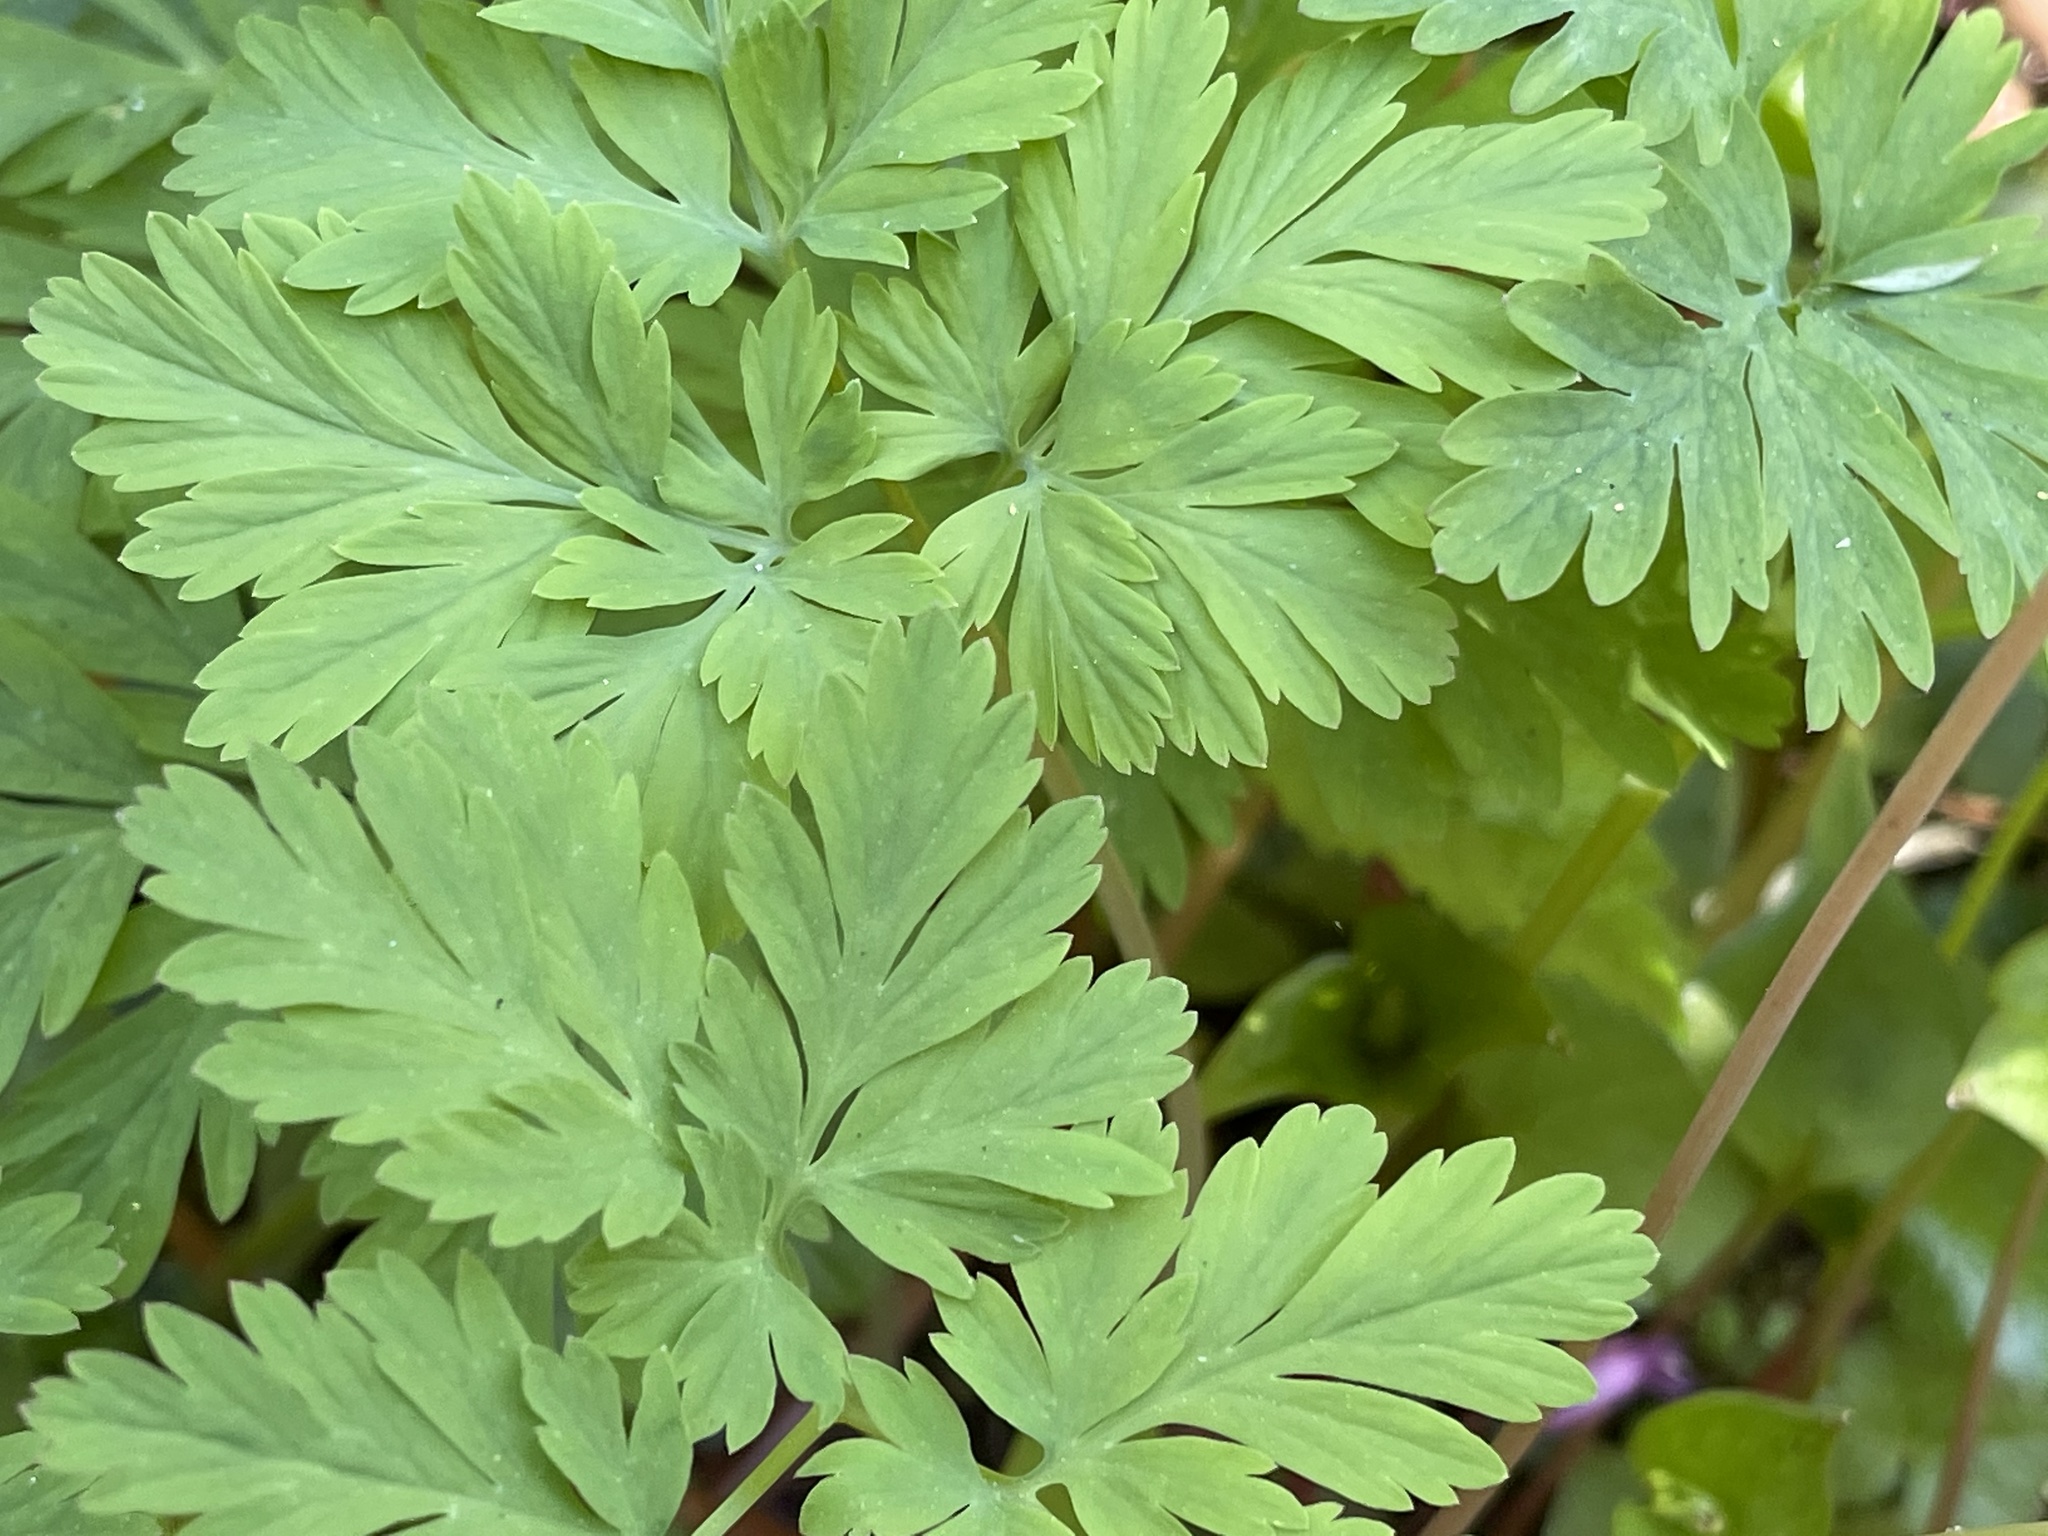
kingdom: Plantae
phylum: Tracheophyta
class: Magnoliopsida
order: Ranunculales
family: Papaveraceae
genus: Dicentra
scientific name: Dicentra formosa
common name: Bleeding-heart
